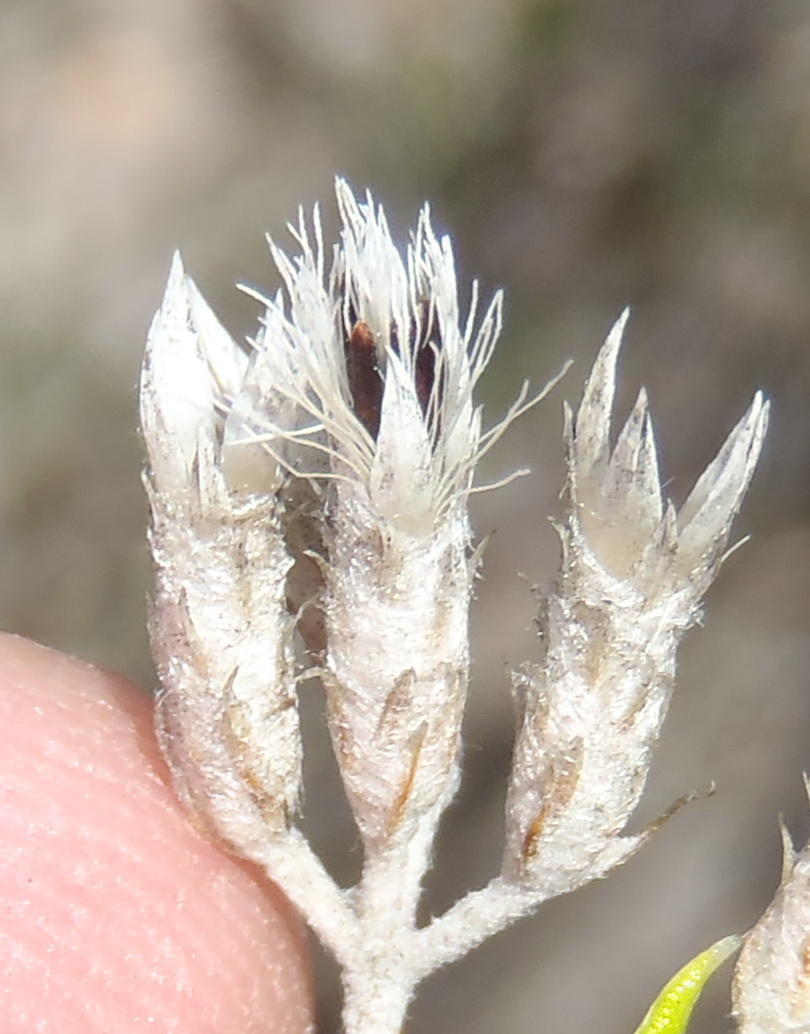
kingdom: Plantae
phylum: Tracheophyta
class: Magnoliopsida
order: Asterales
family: Asteraceae
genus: Metalasia
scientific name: Metalasia pallida
